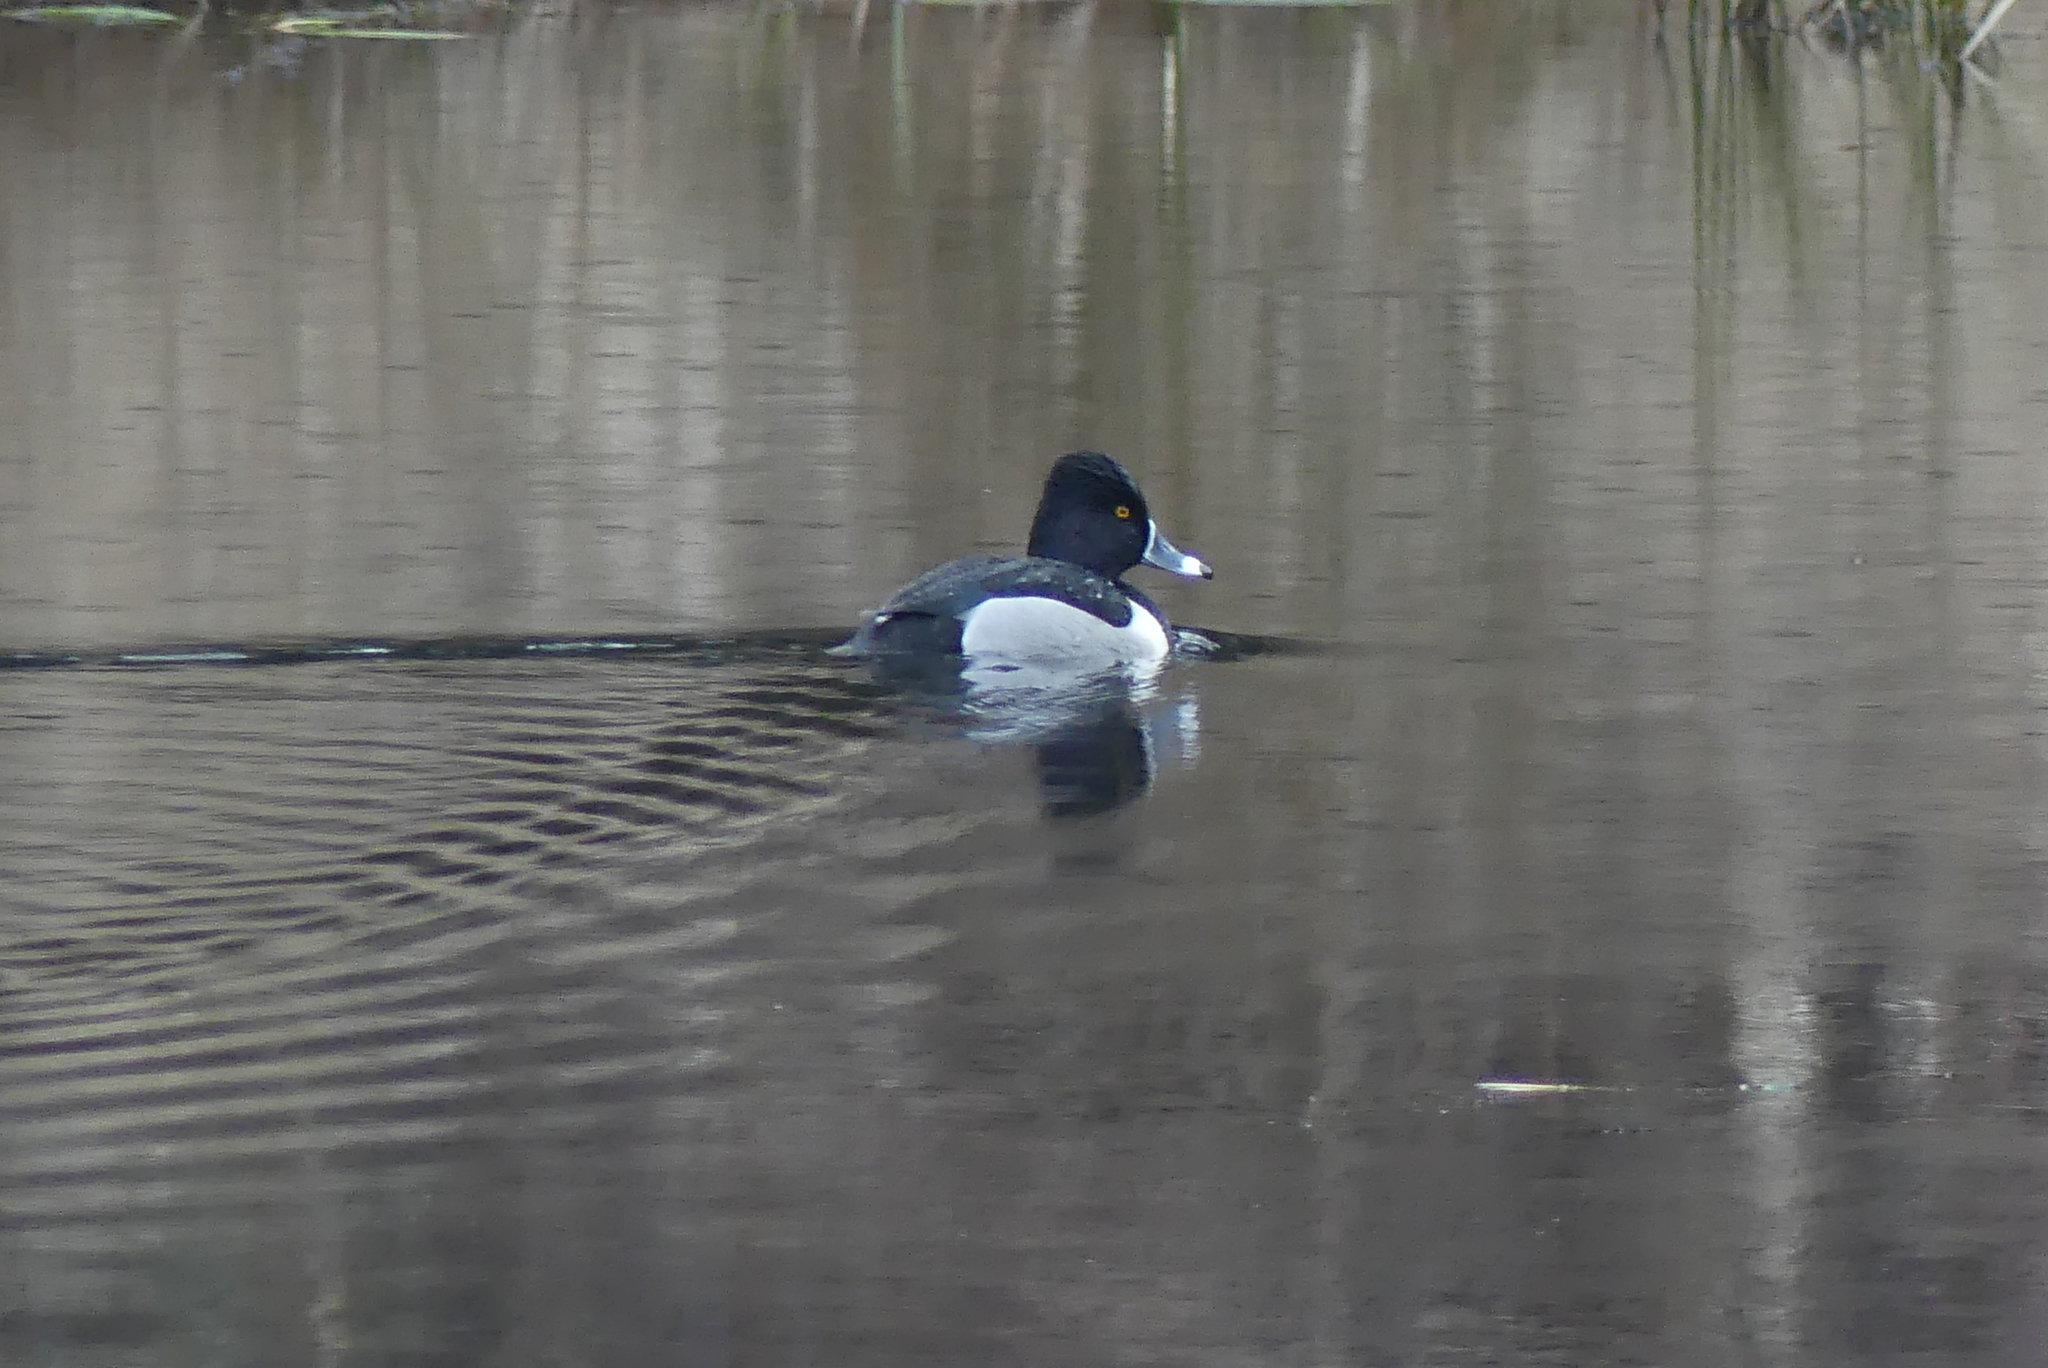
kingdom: Animalia
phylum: Chordata
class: Aves
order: Anseriformes
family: Anatidae
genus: Aythya
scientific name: Aythya collaris
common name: Ring-necked duck
